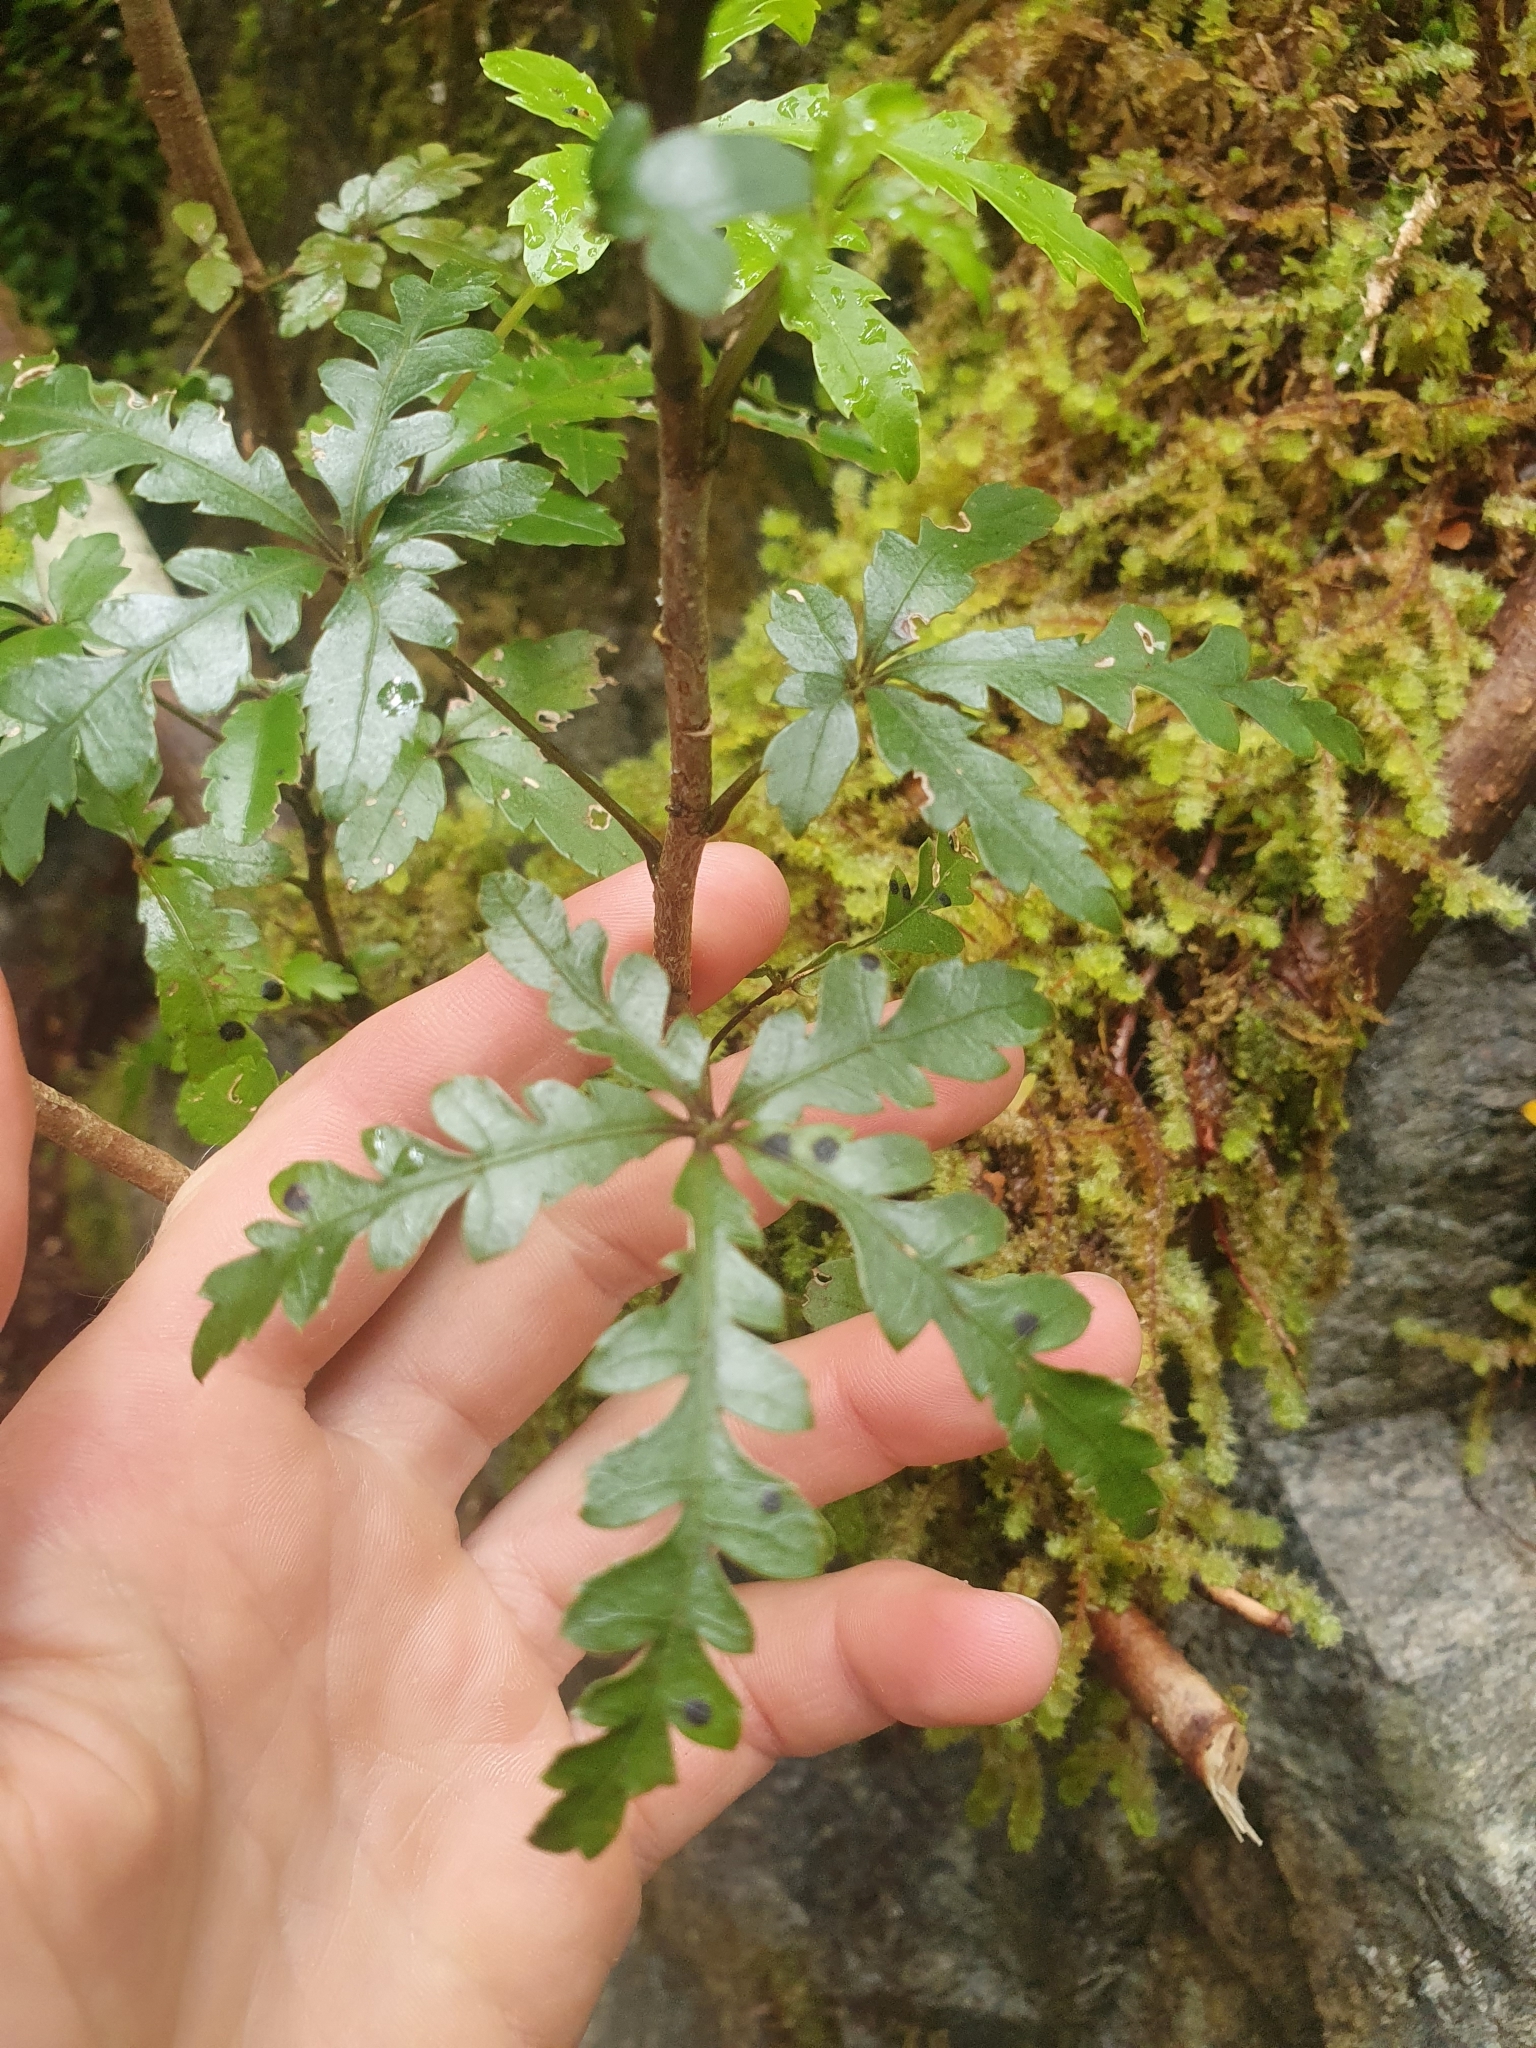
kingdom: Plantae
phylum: Tracheophyta
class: Magnoliopsida
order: Apiales
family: Araliaceae
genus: Raukaua
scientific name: Raukaua simplex
